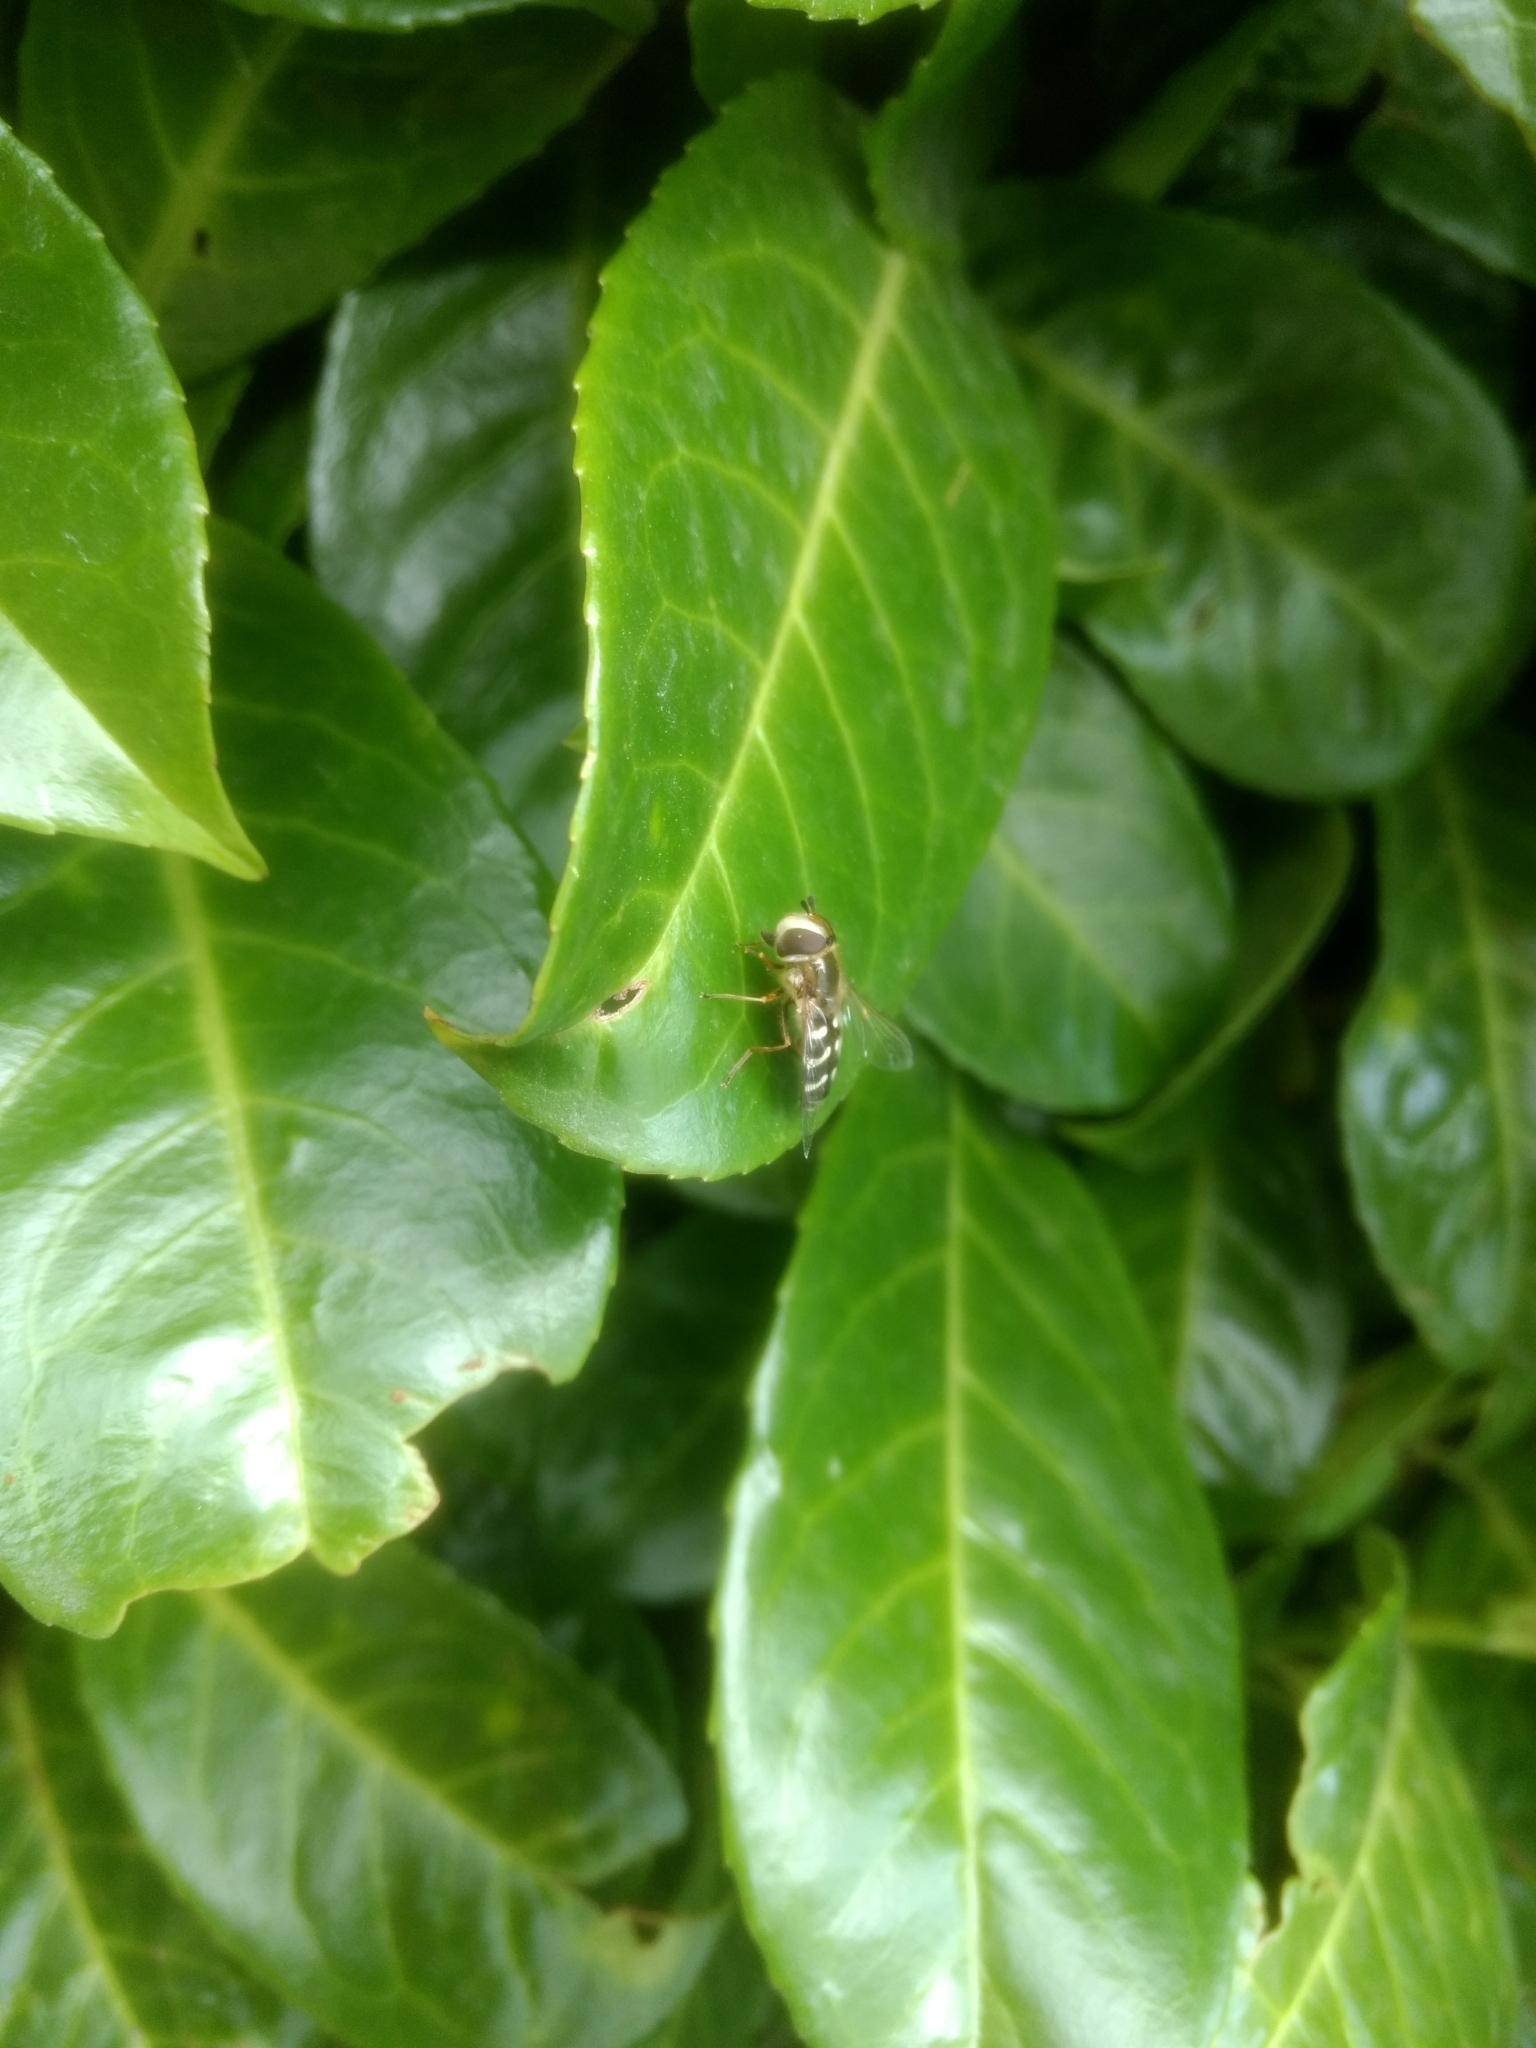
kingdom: Animalia
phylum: Arthropoda
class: Insecta
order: Diptera
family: Syrphidae
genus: Scaeva
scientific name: Scaeva pyrastri
